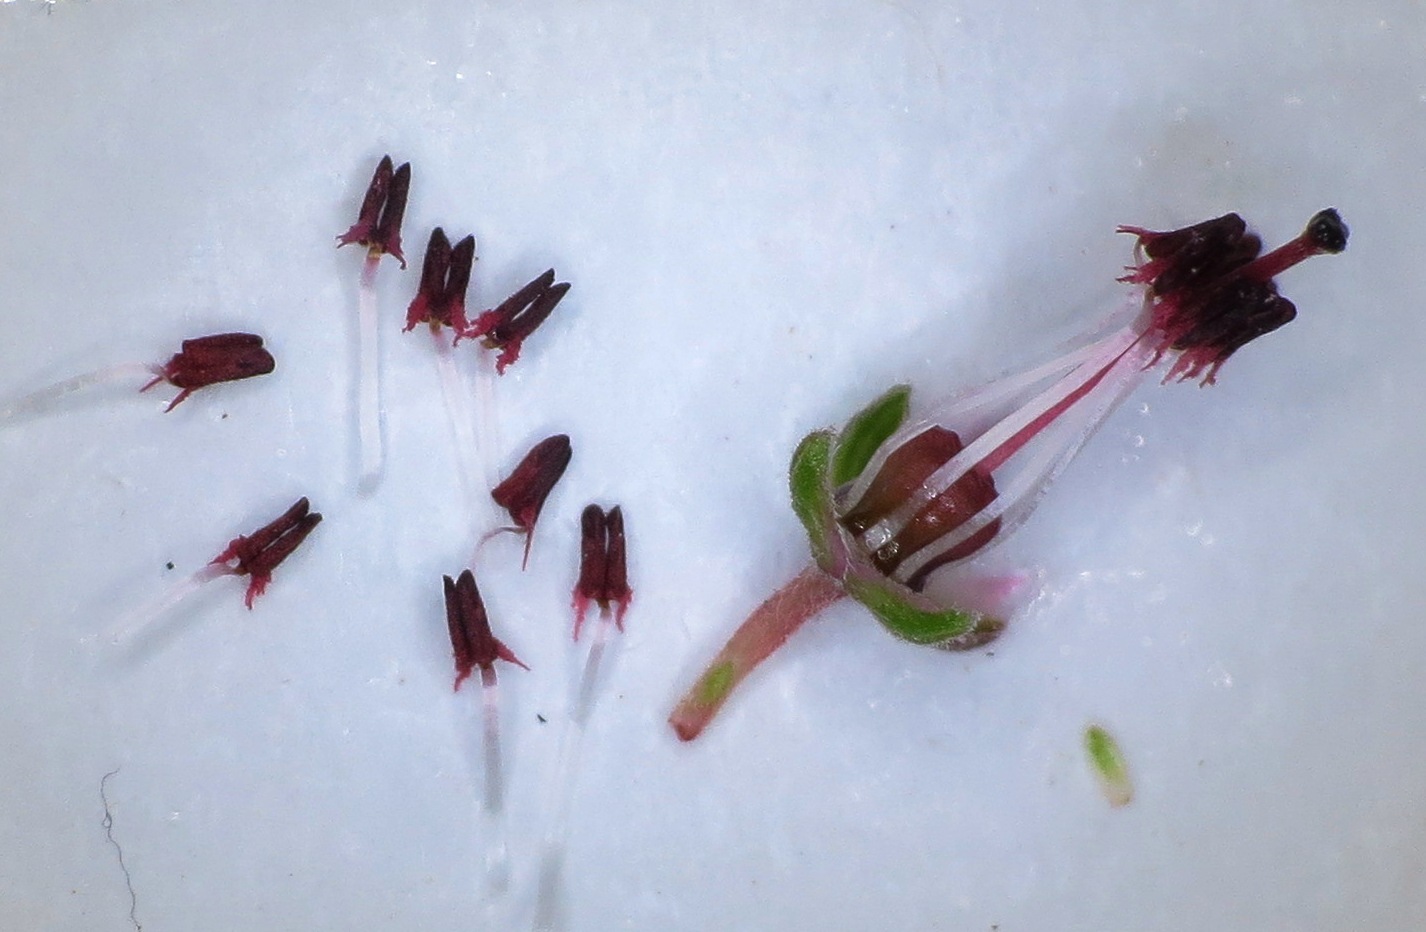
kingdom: Plantae
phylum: Tracheophyta
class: Magnoliopsida
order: Ericales
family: Ericaceae
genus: Erica
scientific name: Erica lateralis
